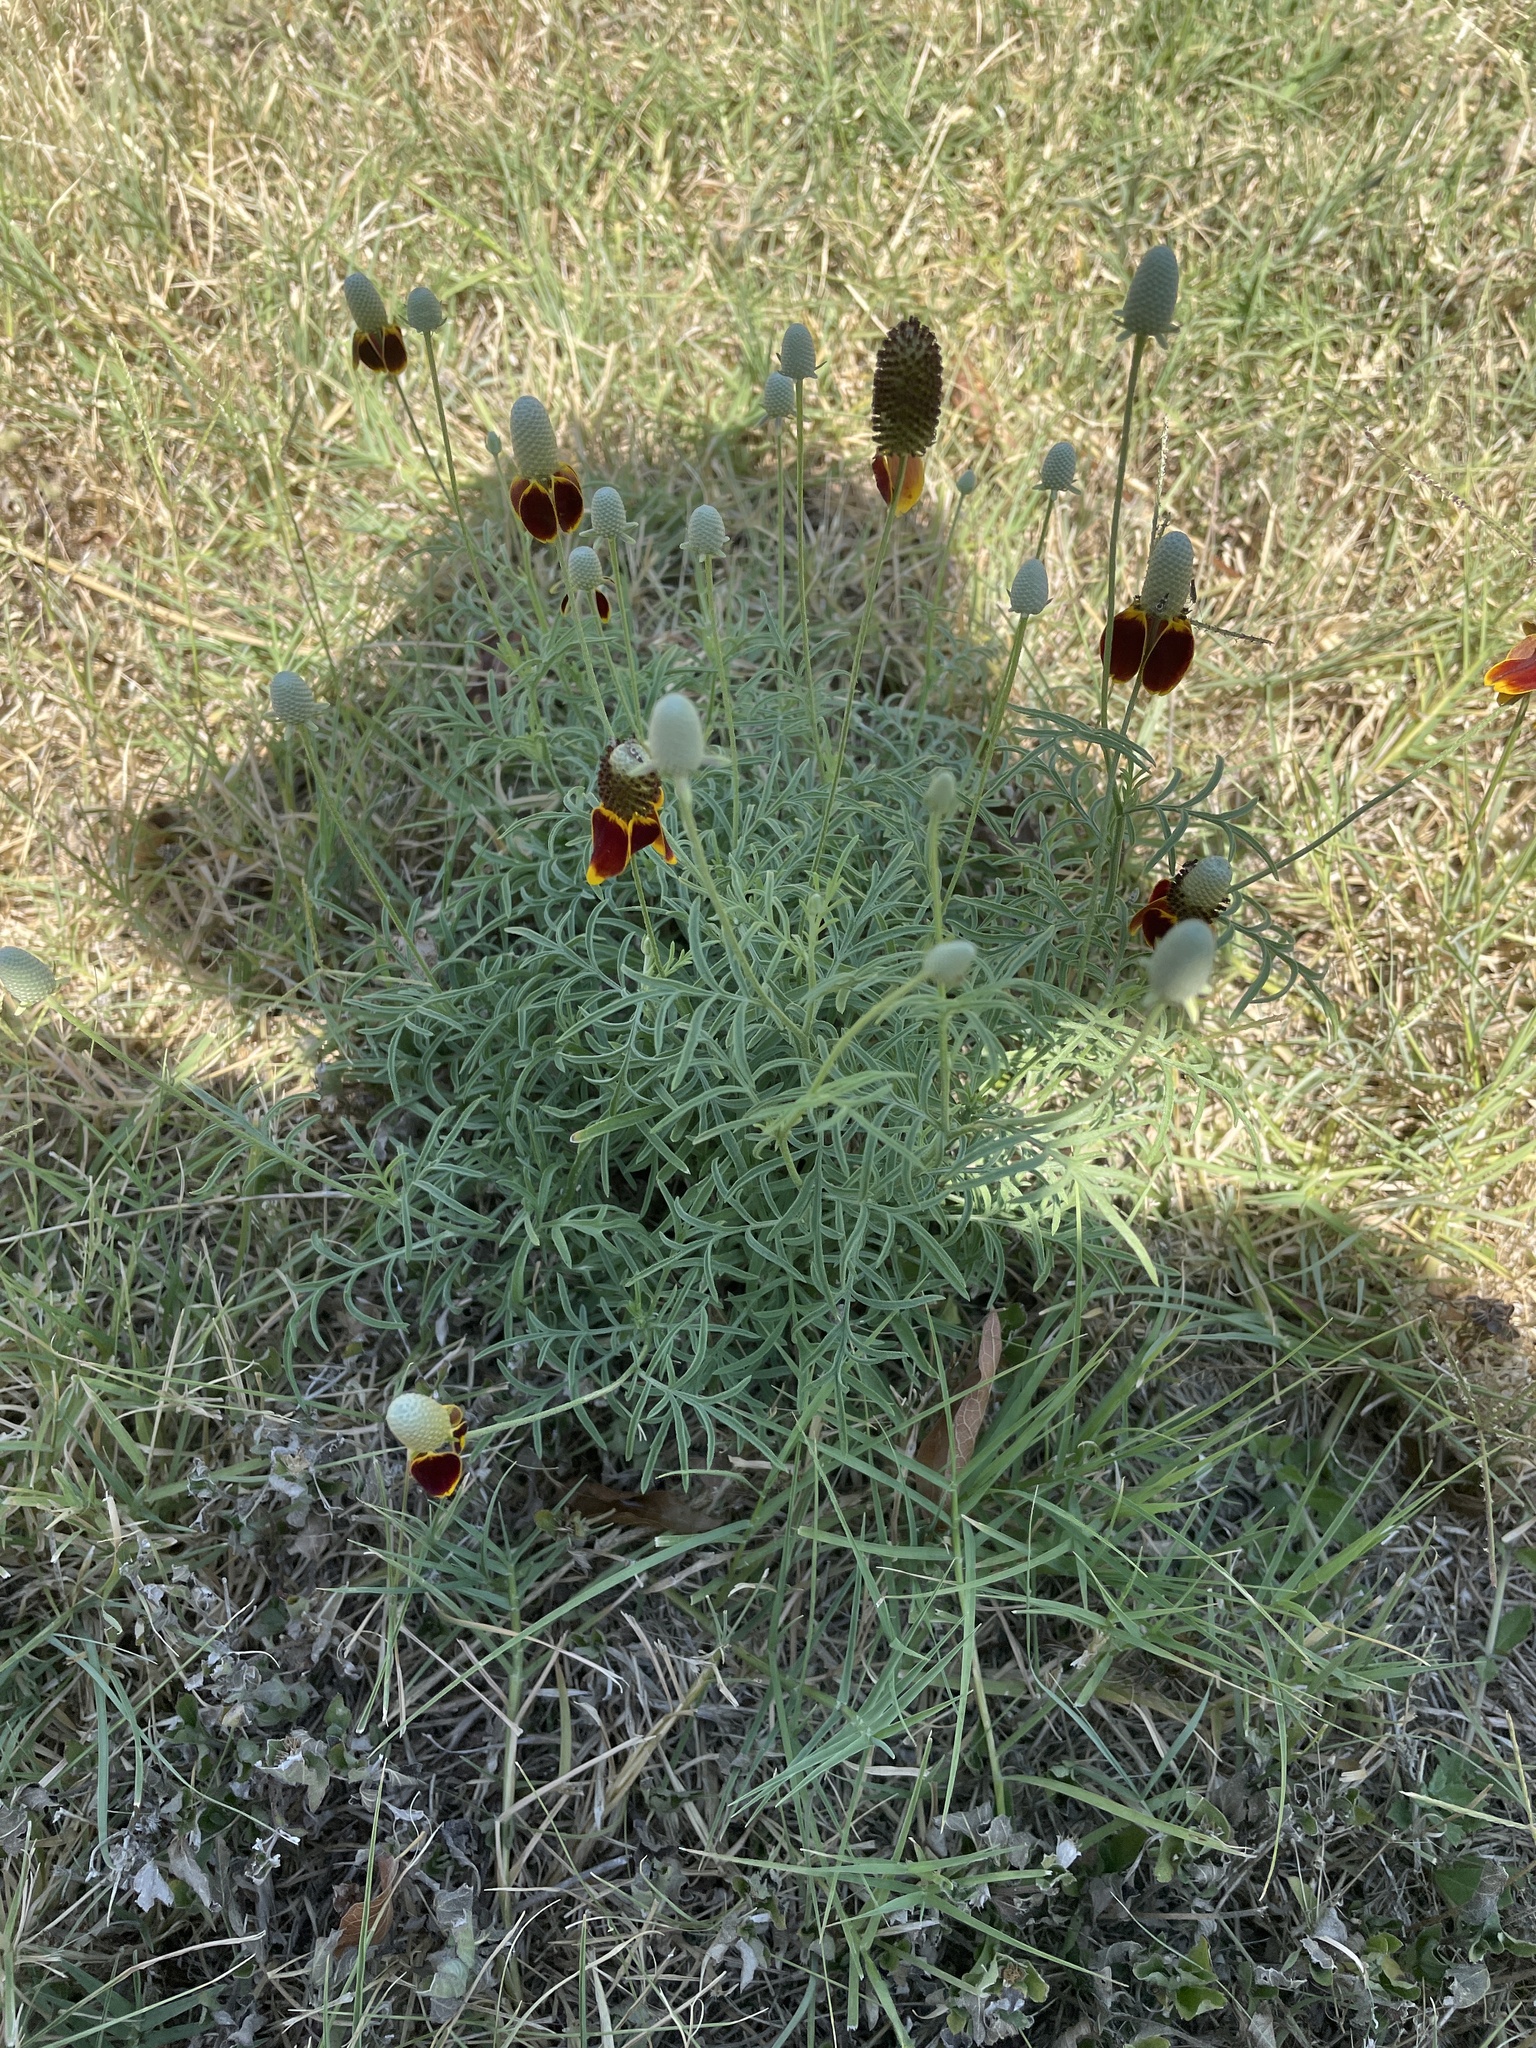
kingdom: Plantae
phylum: Tracheophyta
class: Magnoliopsida
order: Asterales
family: Asteraceae
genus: Ratibida
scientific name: Ratibida columnifera
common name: Prairie coneflower
